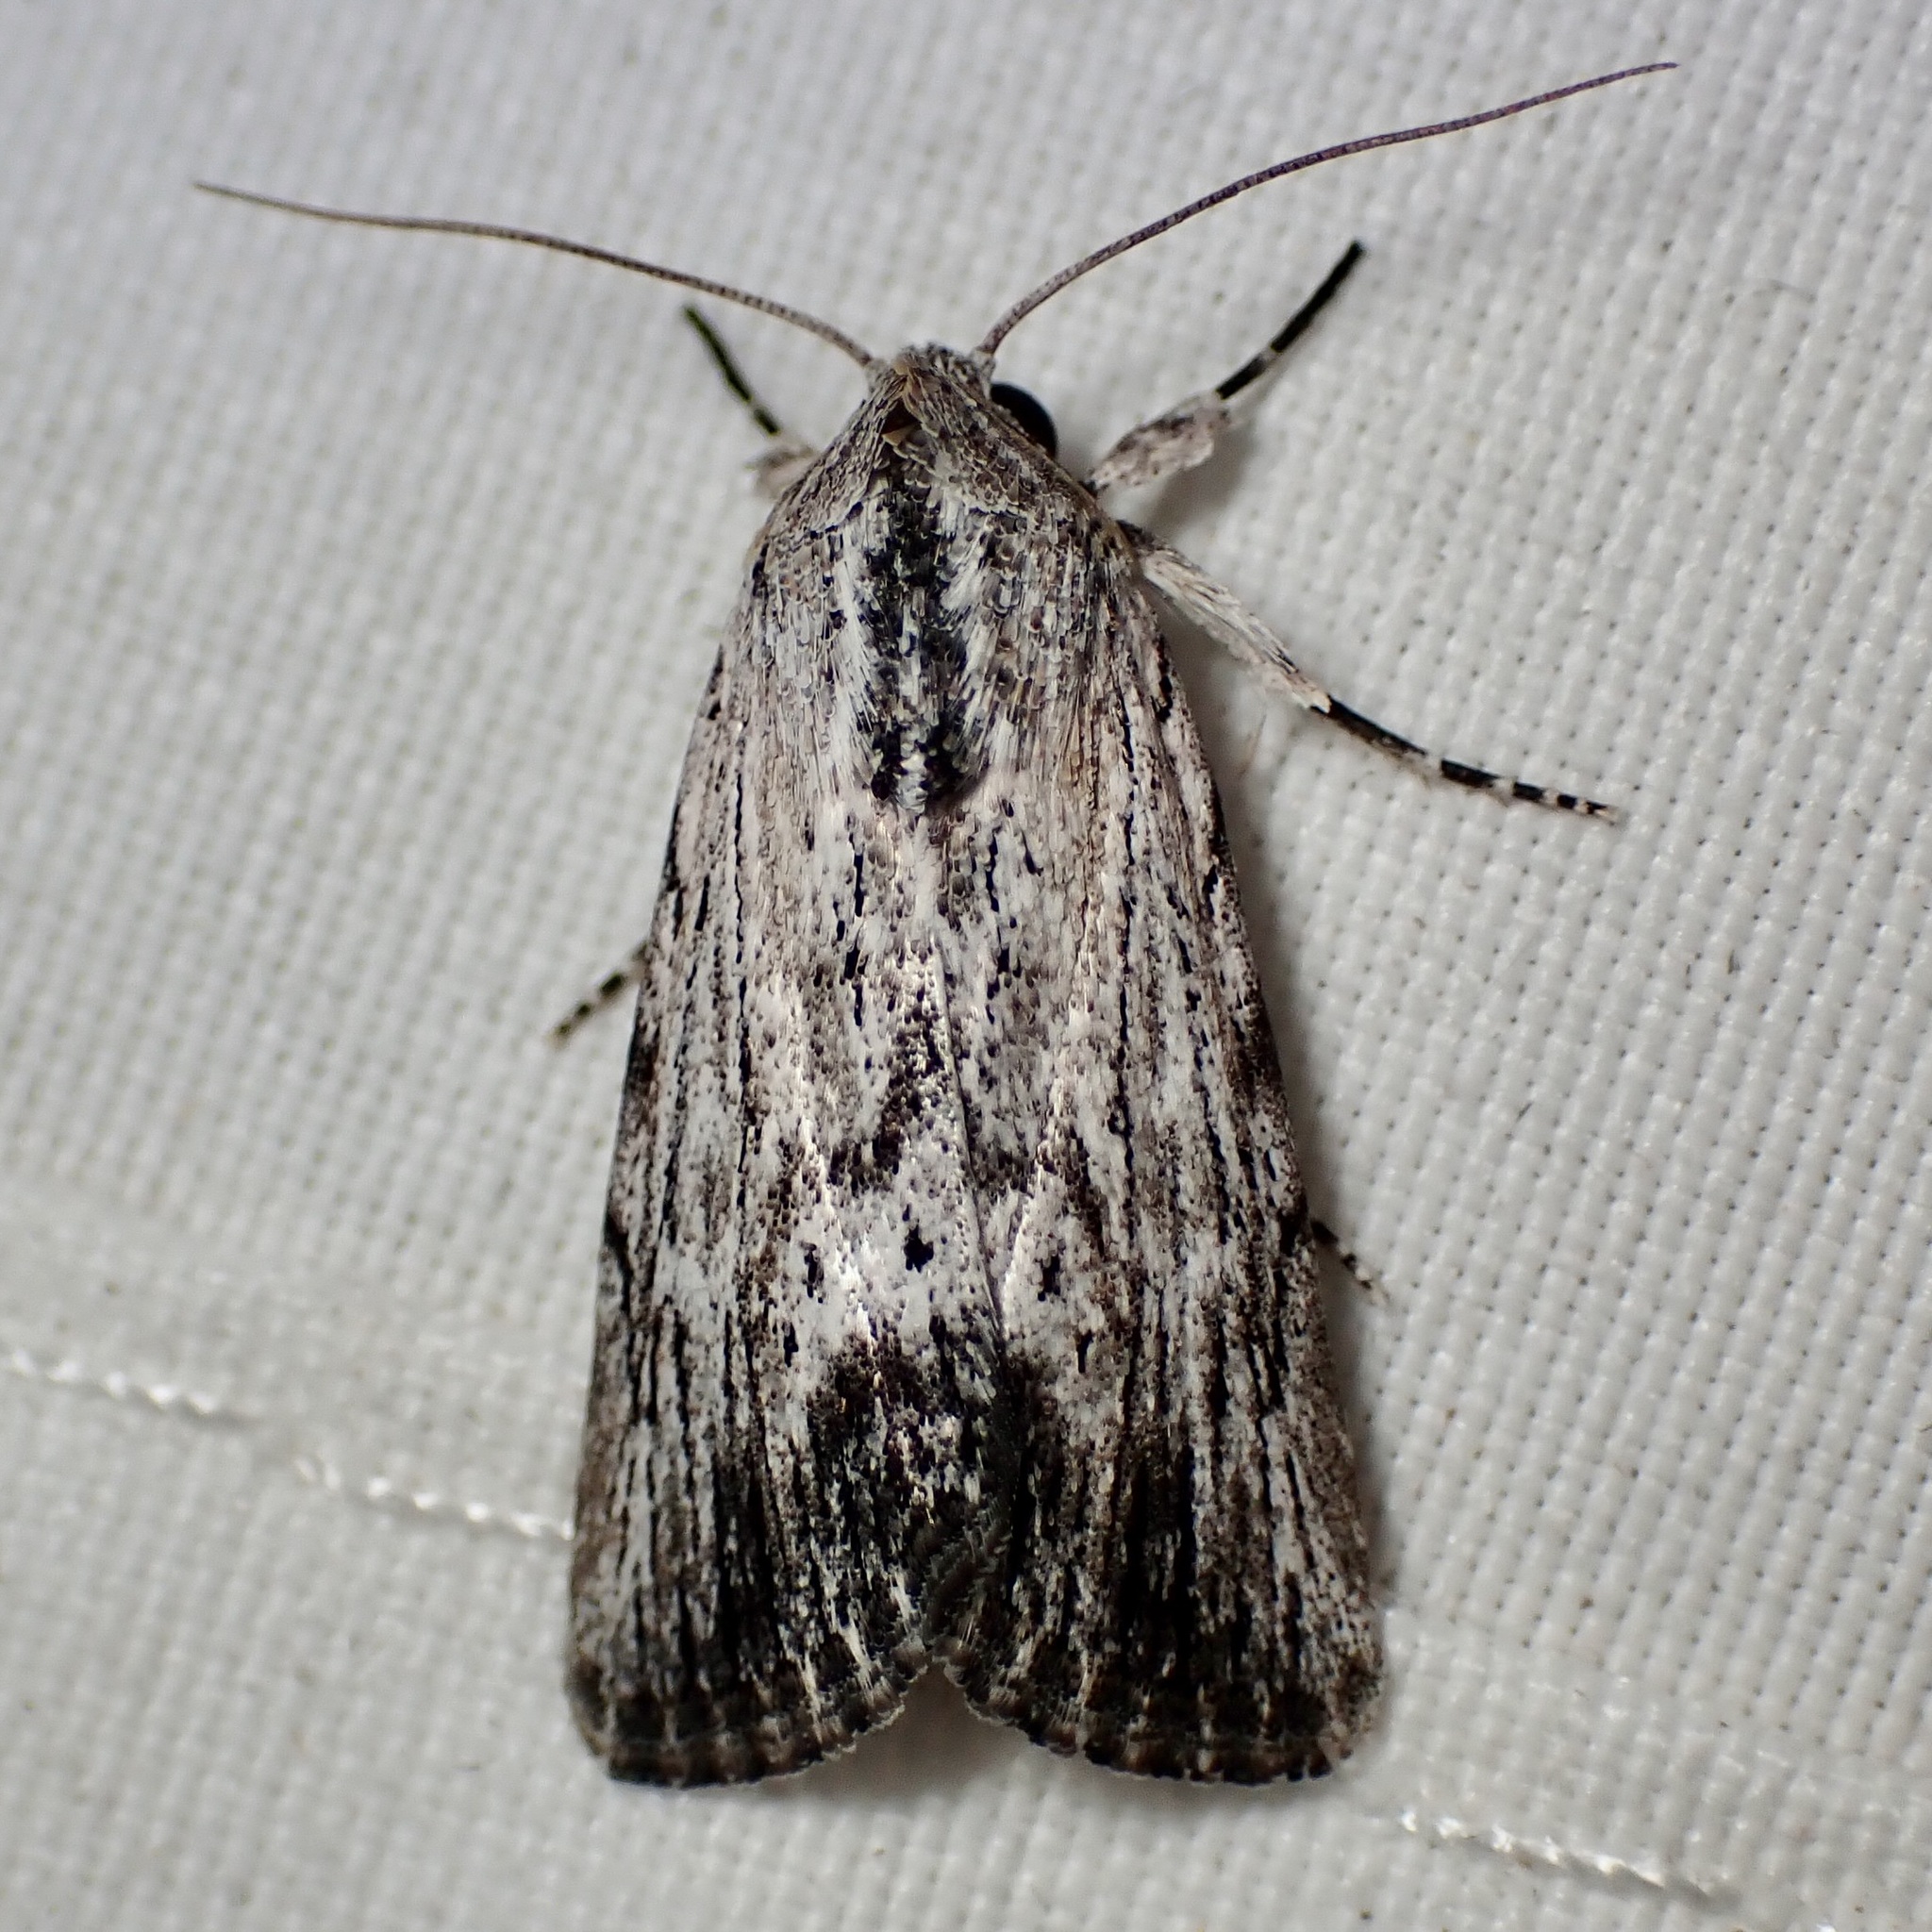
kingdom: Animalia
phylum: Arthropoda
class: Insecta
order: Lepidoptera
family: Noctuidae
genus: Catabenoides
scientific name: Catabenoides terminellus
